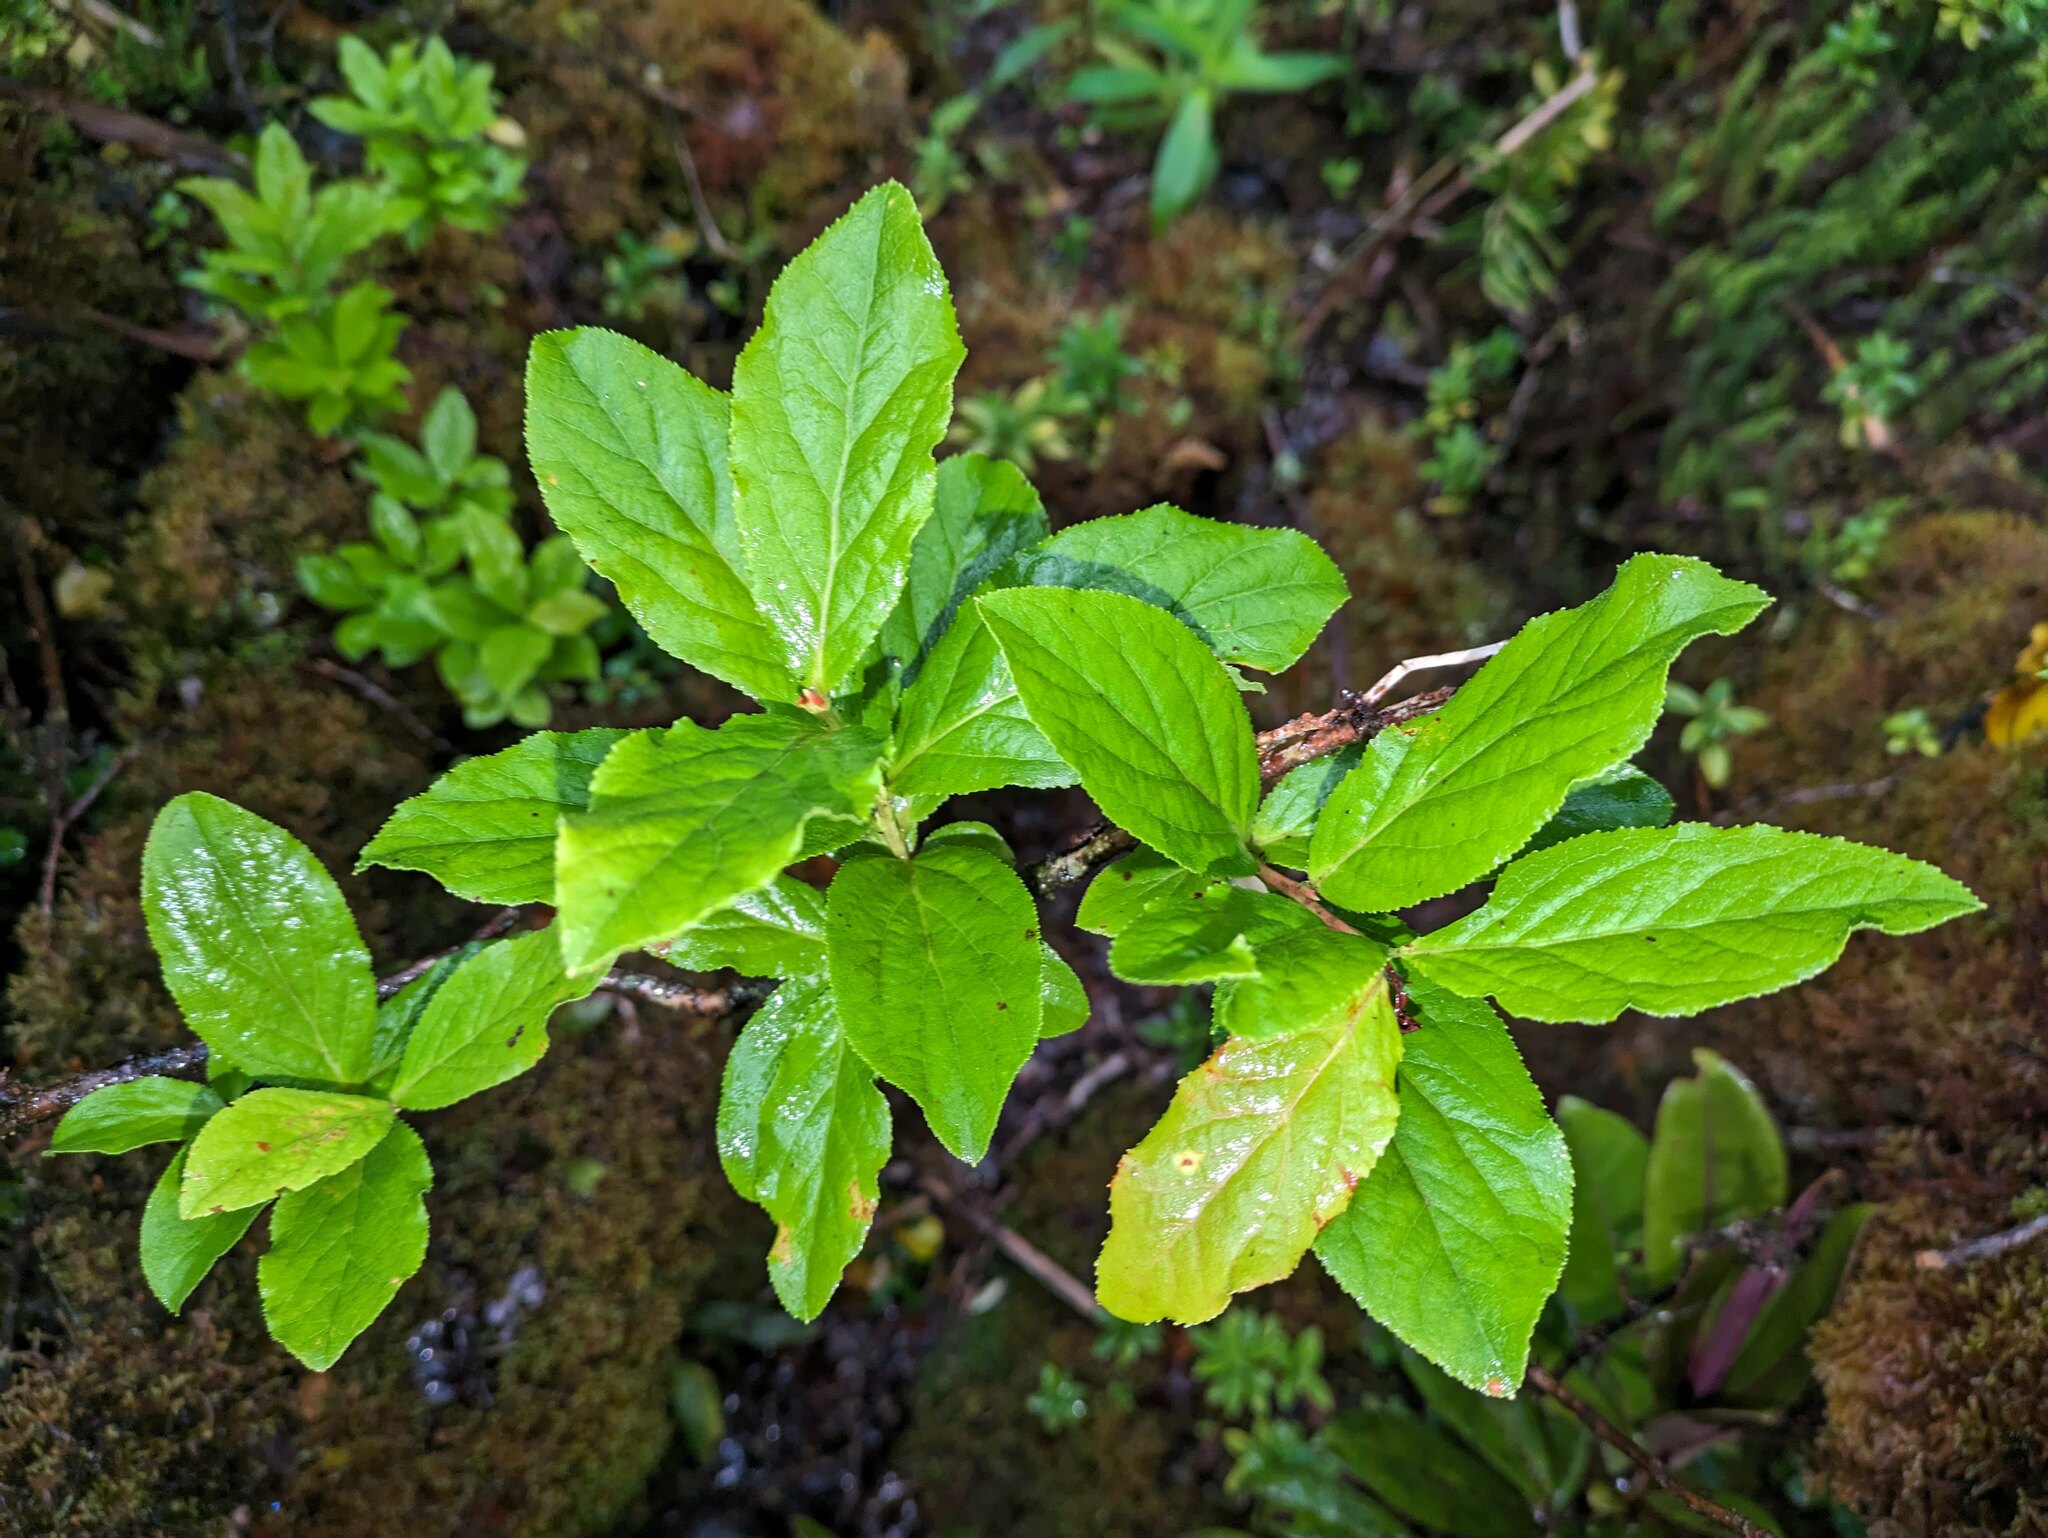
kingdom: Plantae
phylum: Tracheophyta
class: Magnoliopsida
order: Ericales
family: Ericaceae
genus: Vaccinium
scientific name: Vaccinium calycinum
